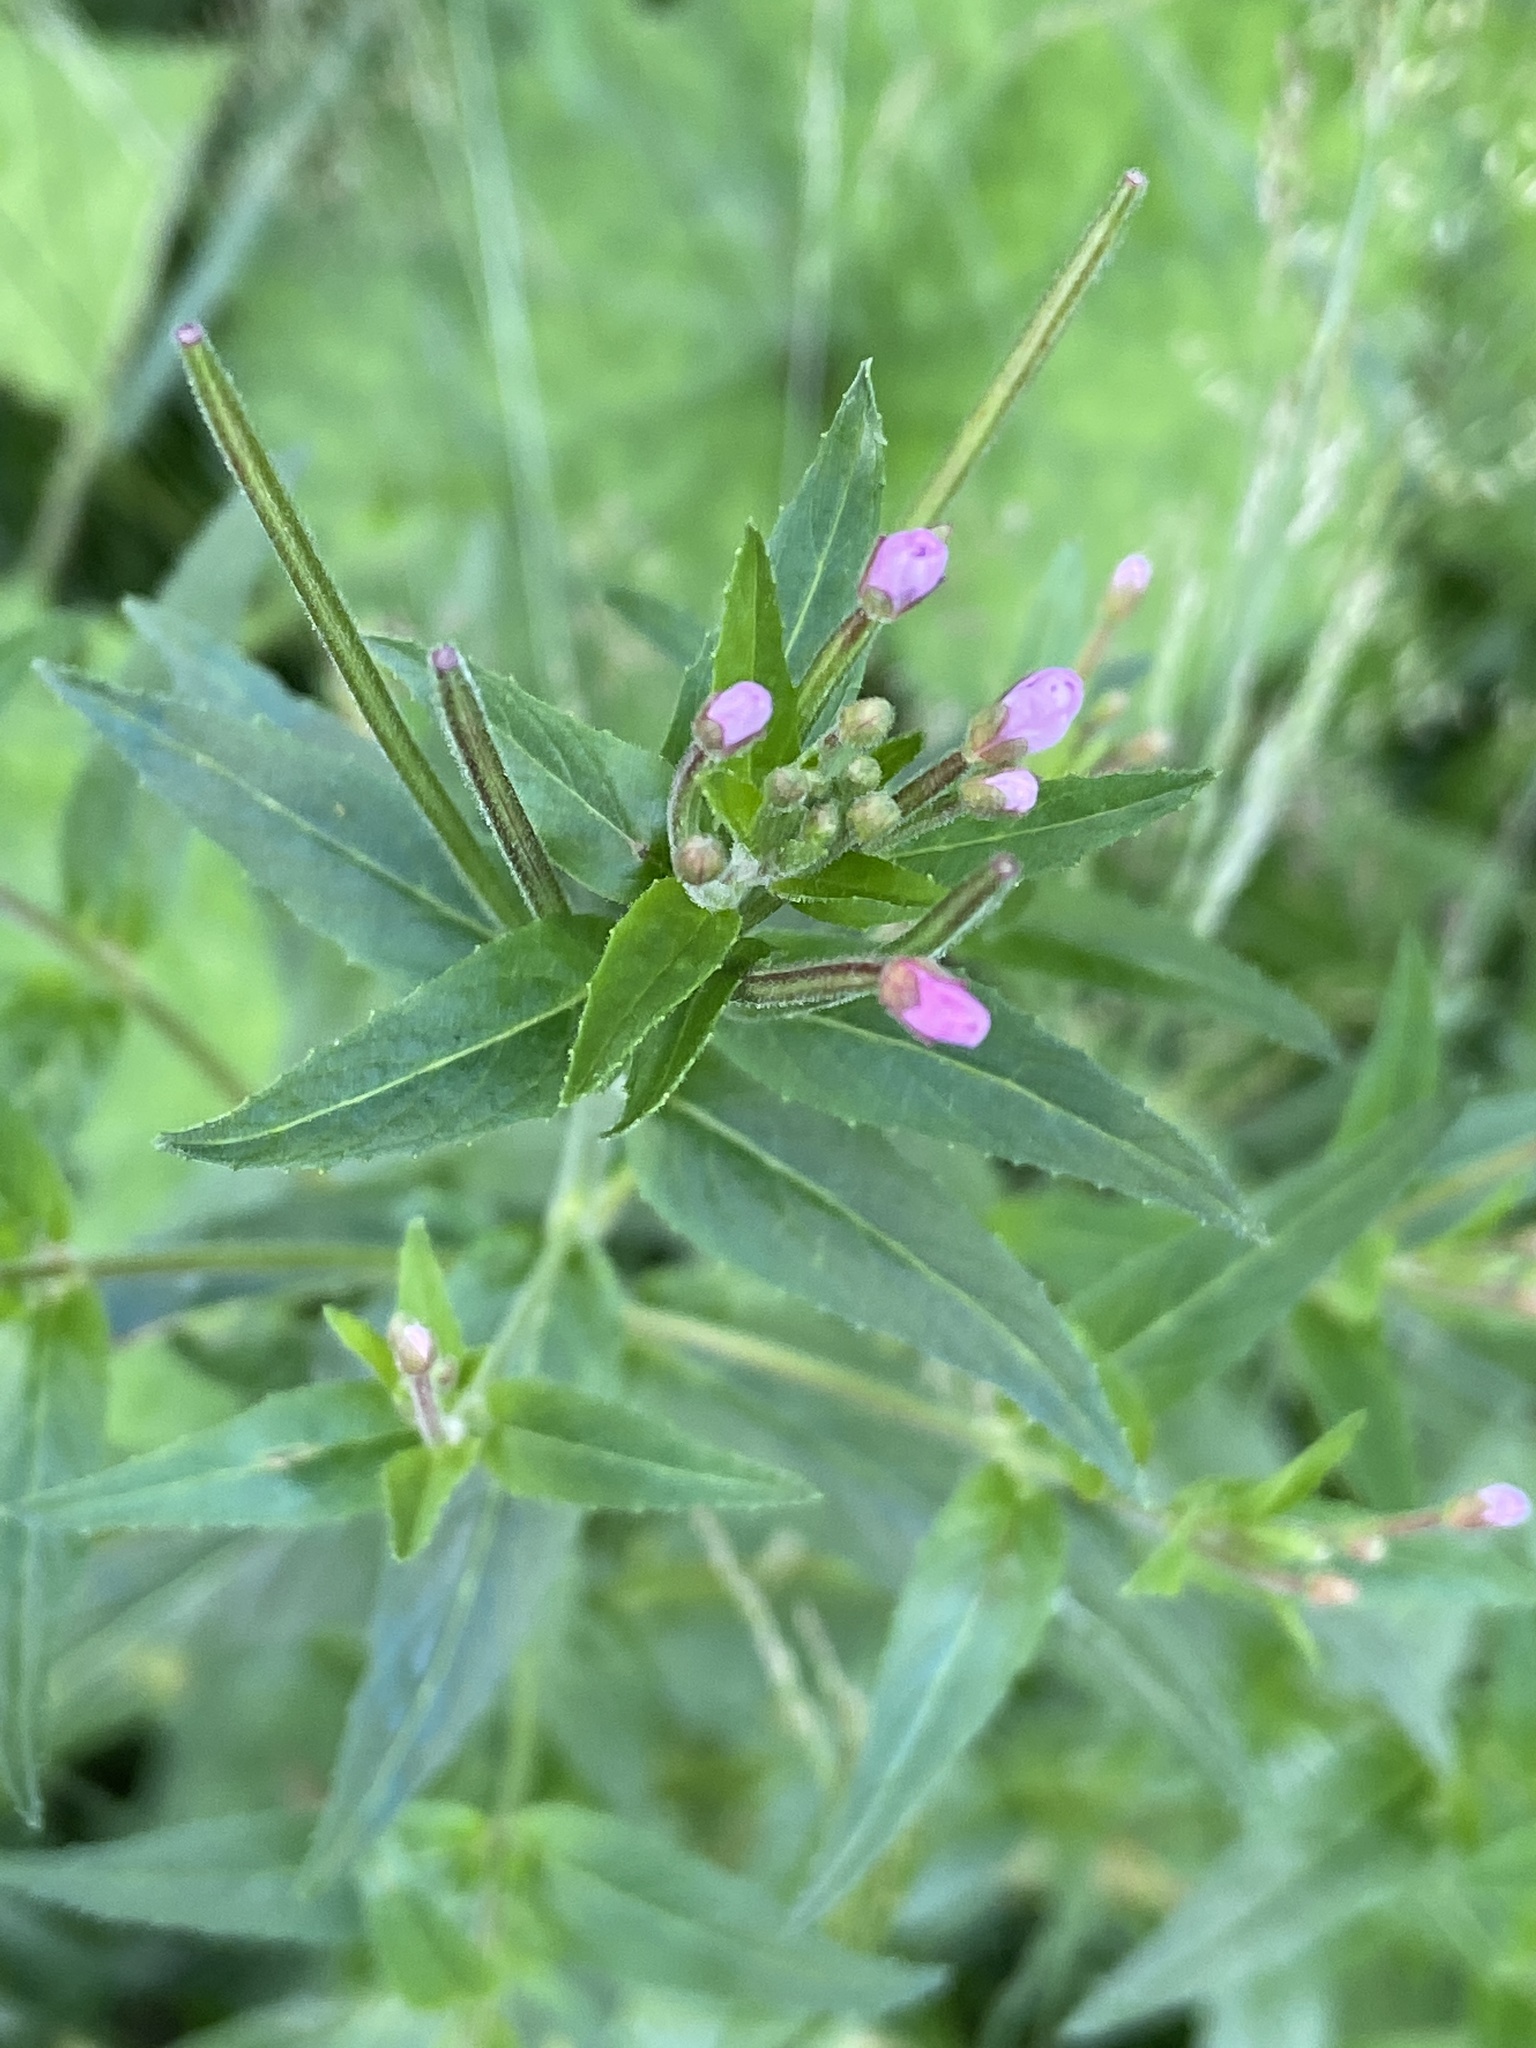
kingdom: Plantae
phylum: Tracheophyta
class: Magnoliopsida
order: Myrtales
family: Onagraceae
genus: Epilobium
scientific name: Epilobium ciliatum
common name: American willowherb
